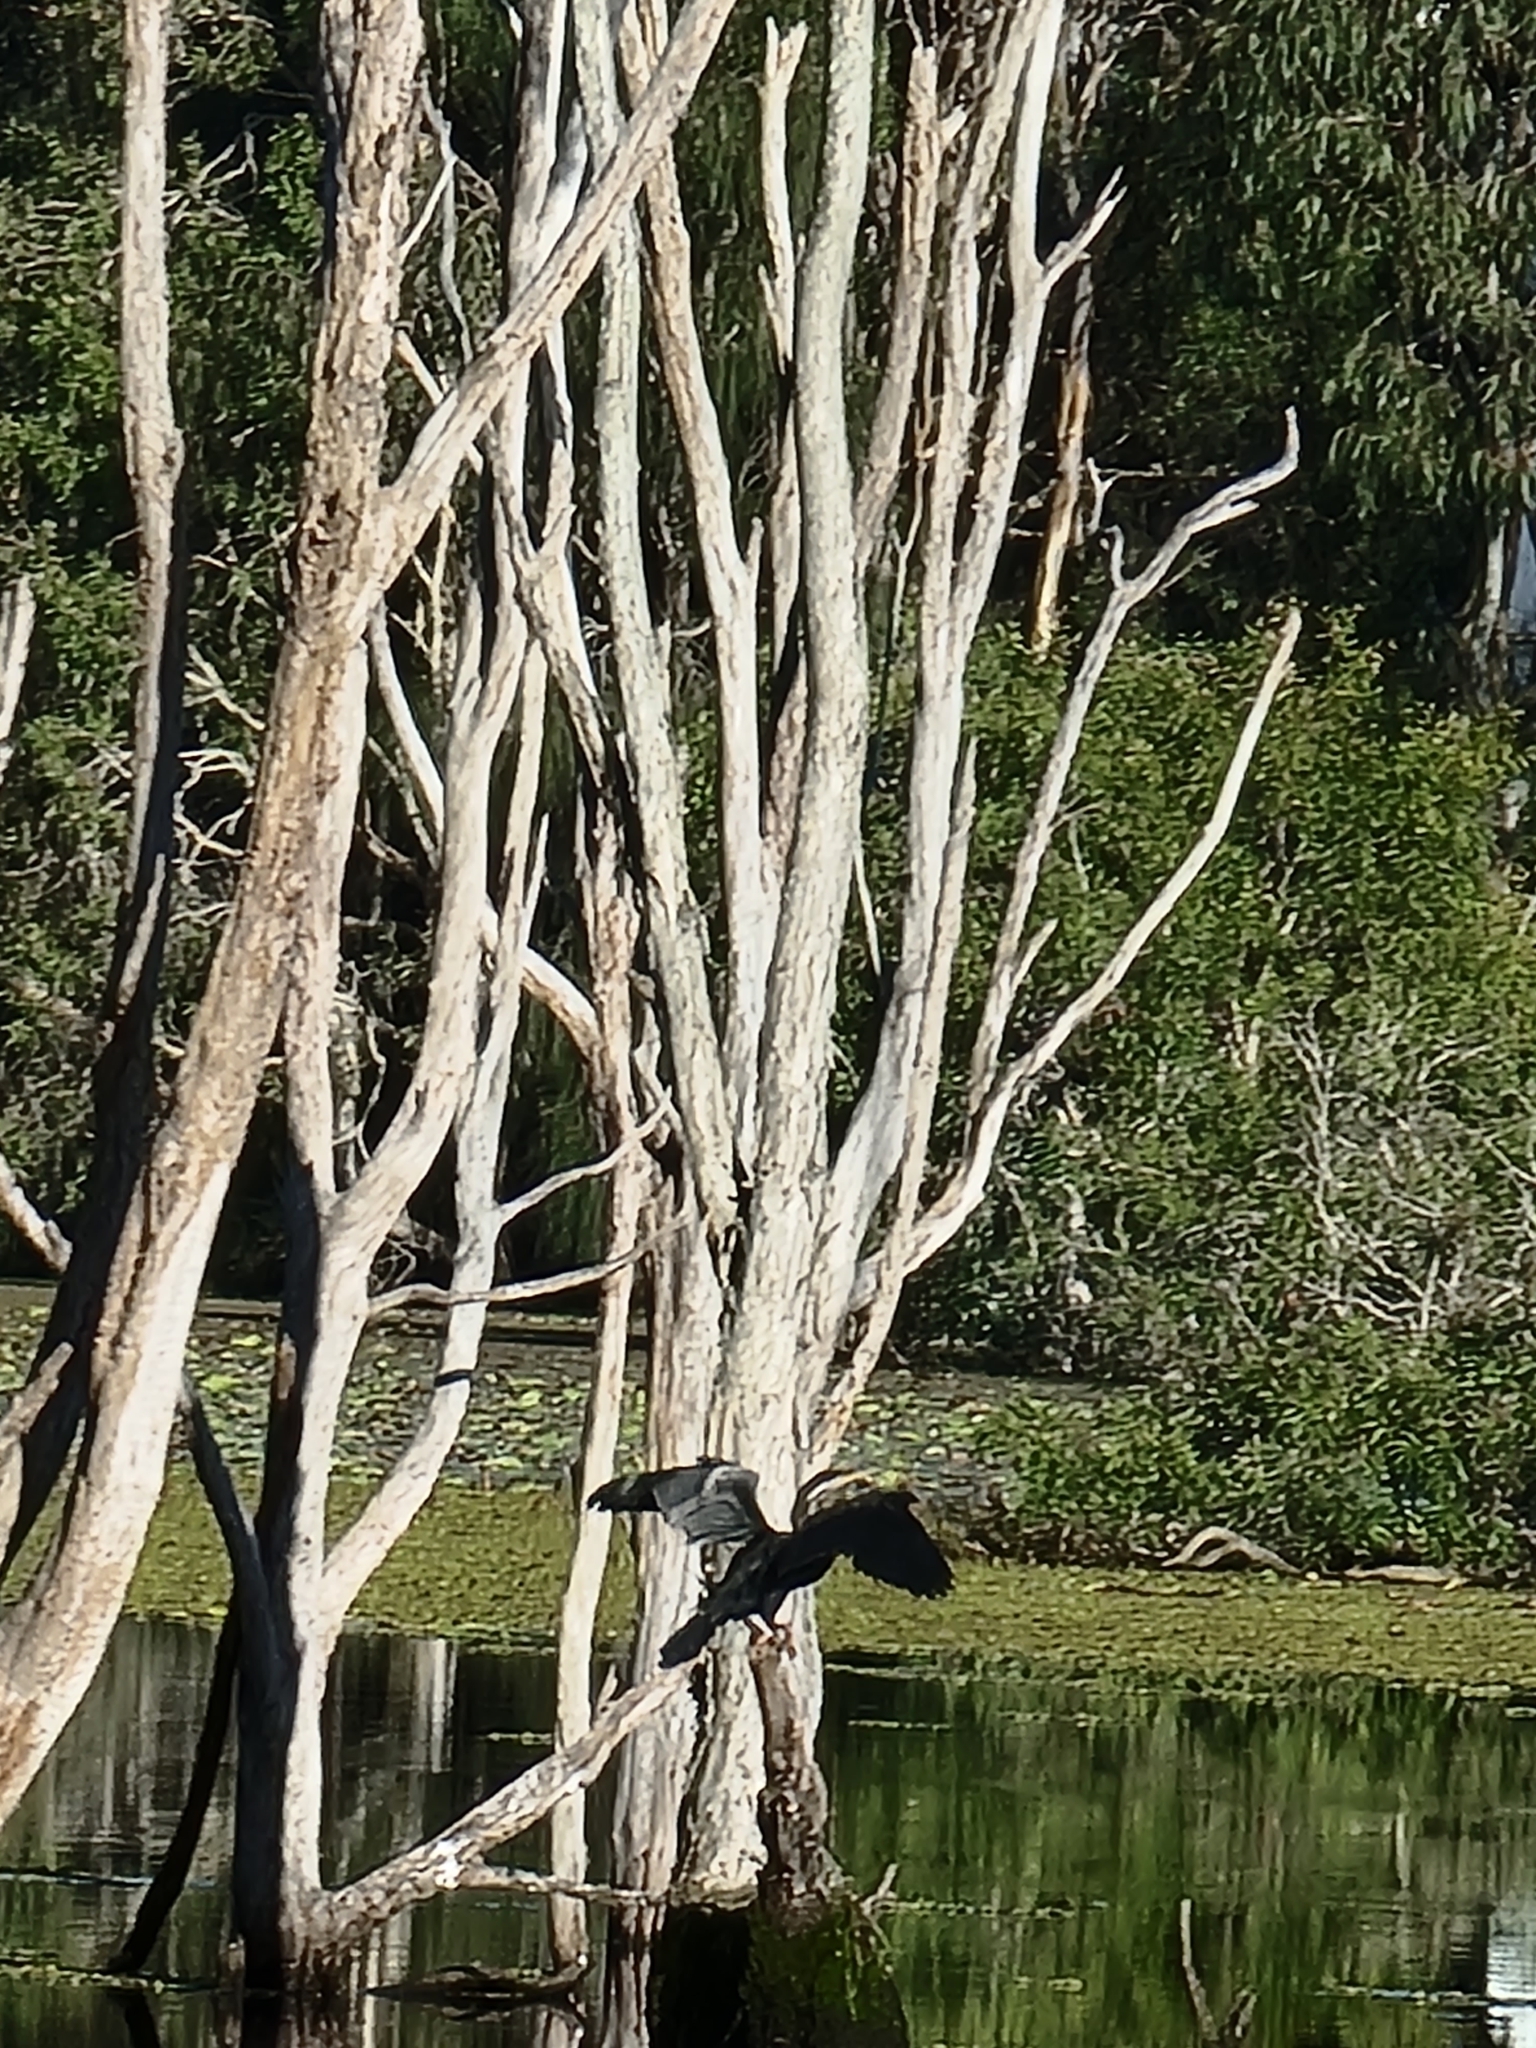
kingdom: Animalia
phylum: Chordata
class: Aves
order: Suliformes
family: Anhingidae
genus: Anhinga
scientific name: Anhinga novaehollandiae
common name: Australasian darter
